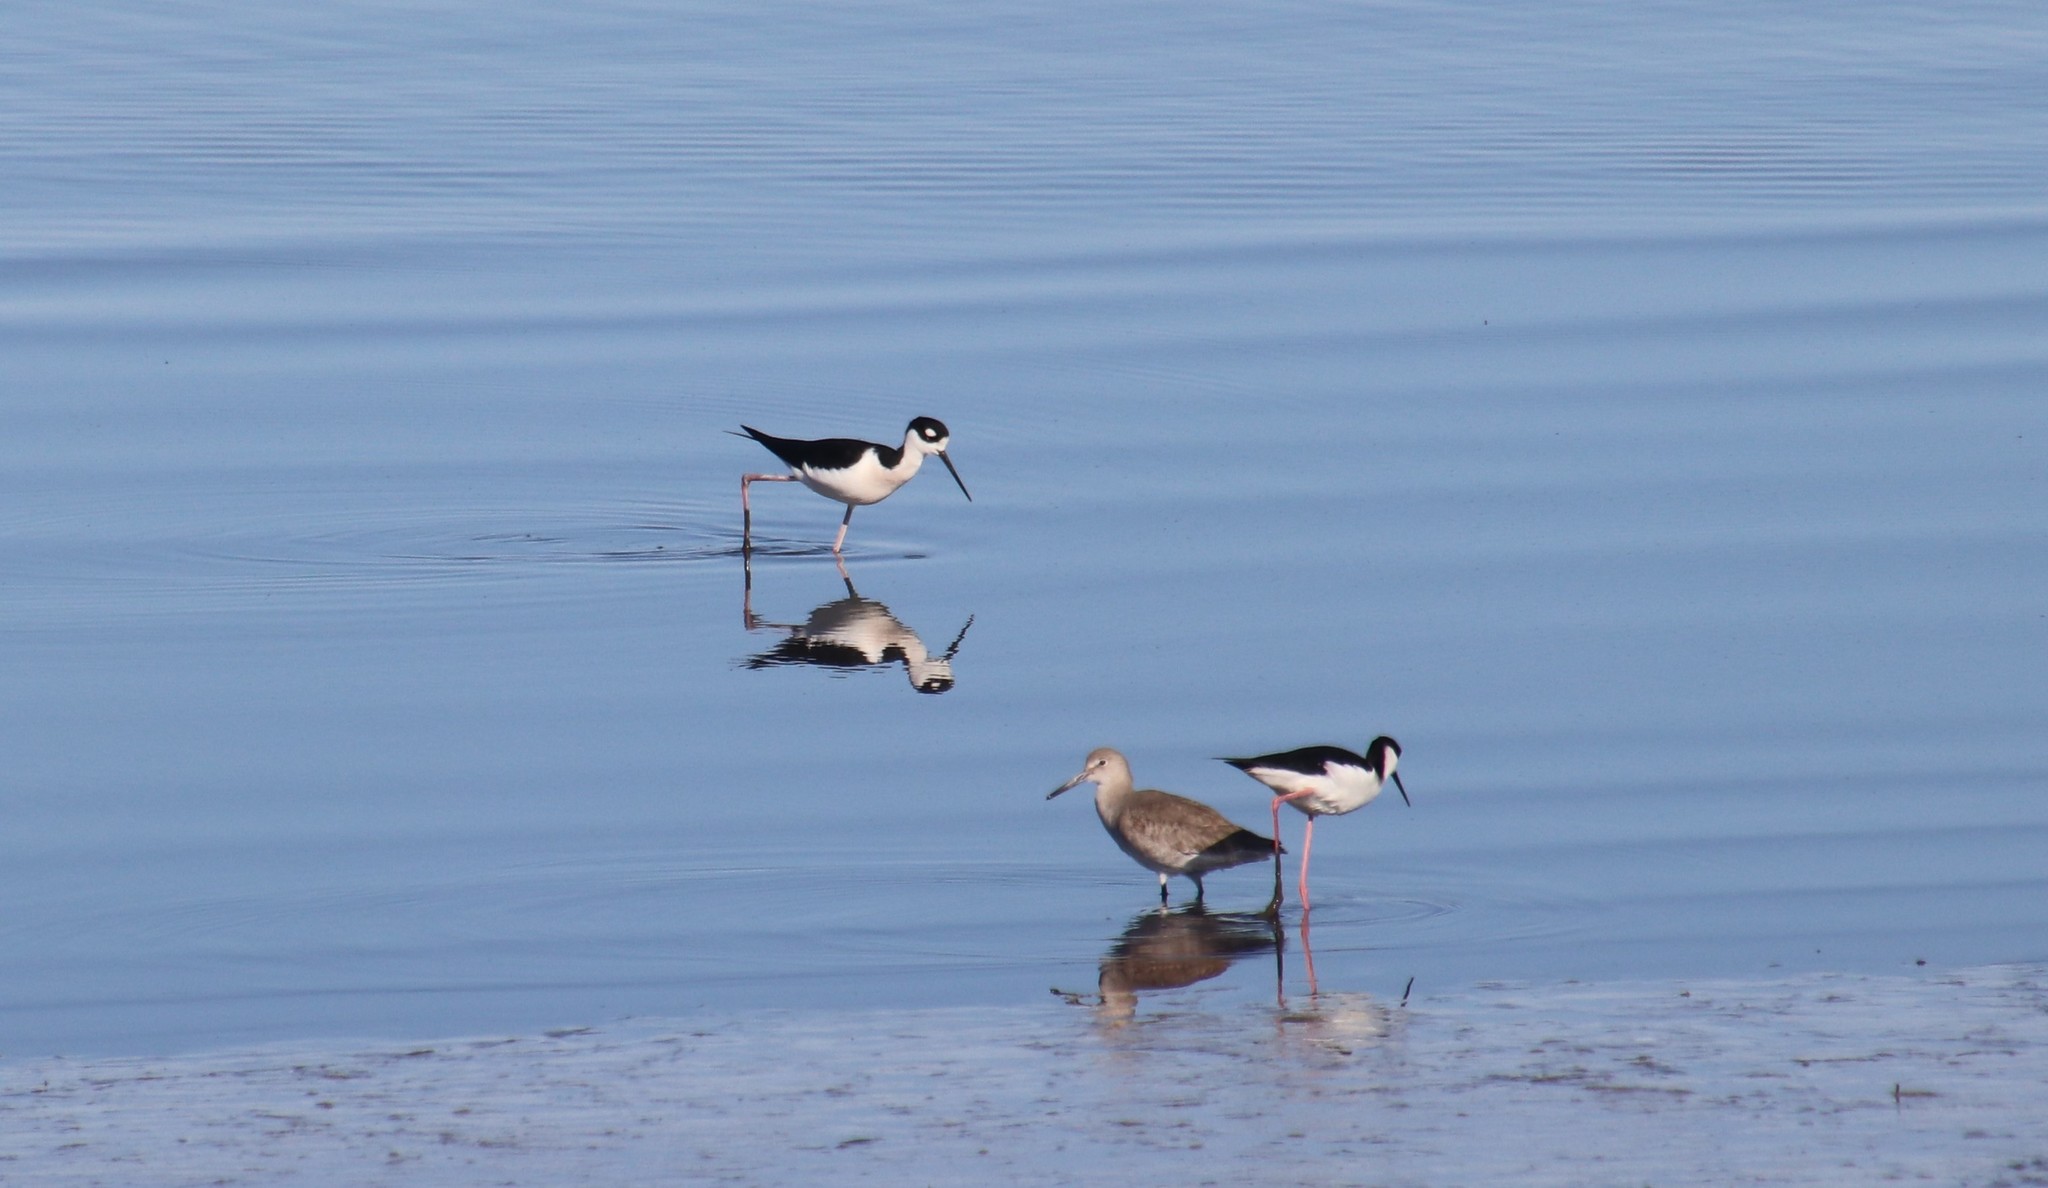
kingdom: Animalia
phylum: Chordata
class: Aves
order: Charadriiformes
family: Recurvirostridae
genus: Himantopus
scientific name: Himantopus mexicanus
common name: Black-necked stilt
